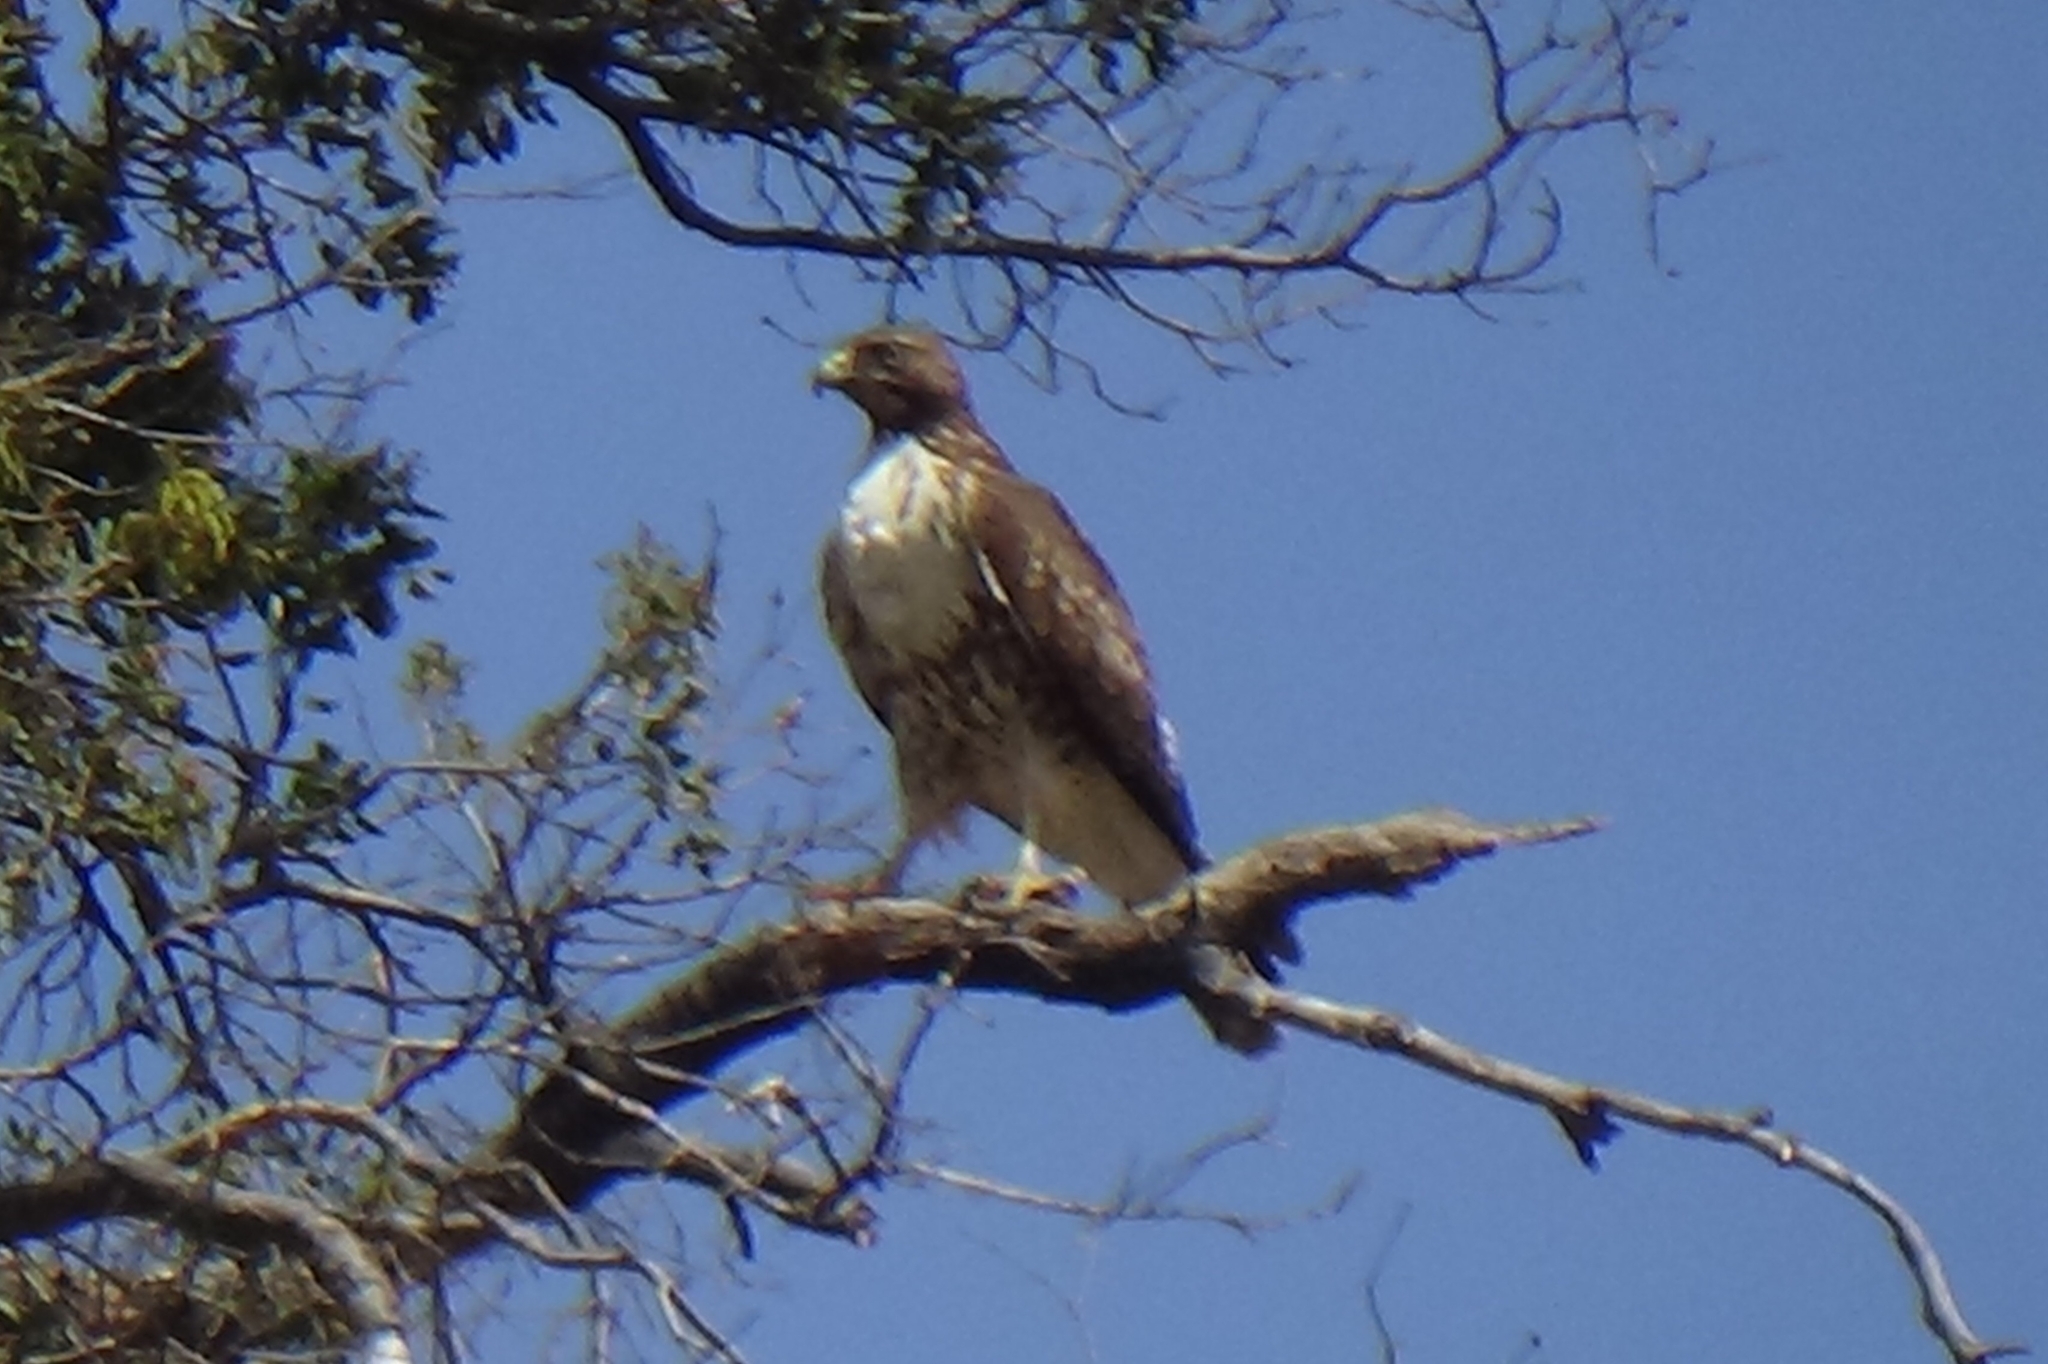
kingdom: Animalia
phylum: Chordata
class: Aves
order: Accipitriformes
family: Accipitridae
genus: Buteo
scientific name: Buteo jamaicensis
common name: Red-tailed hawk
